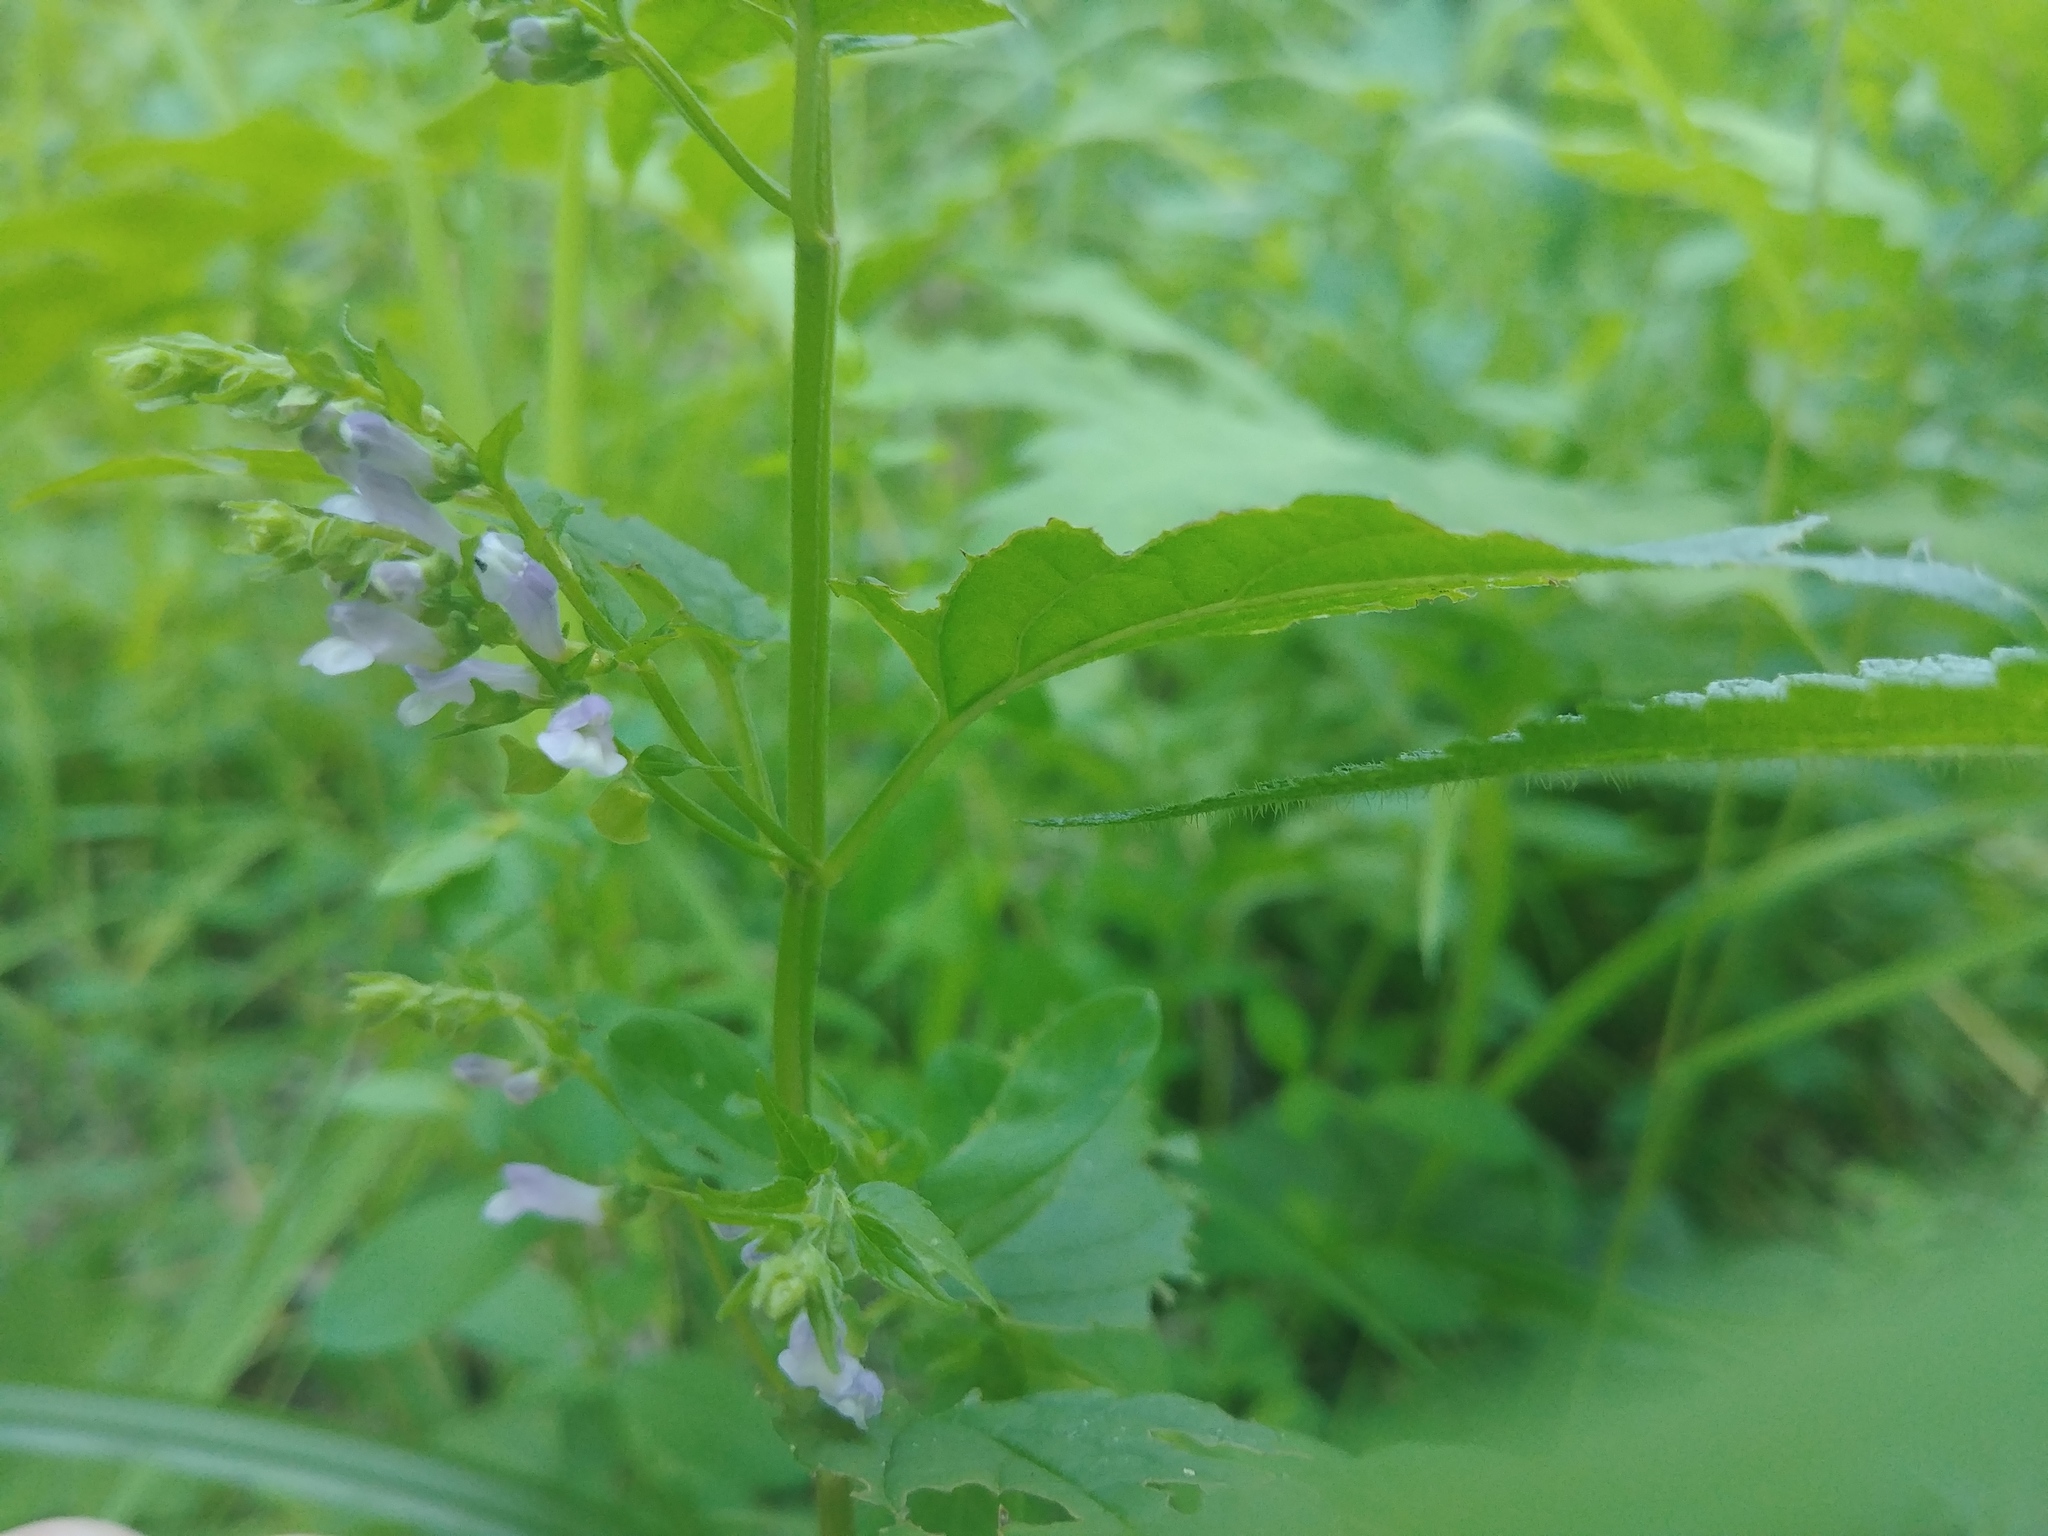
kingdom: Plantae
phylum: Tracheophyta
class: Magnoliopsida
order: Lamiales
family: Lamiaceae
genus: Scutellaria
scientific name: Scutellaria lateriflora
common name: Blue skullcap
